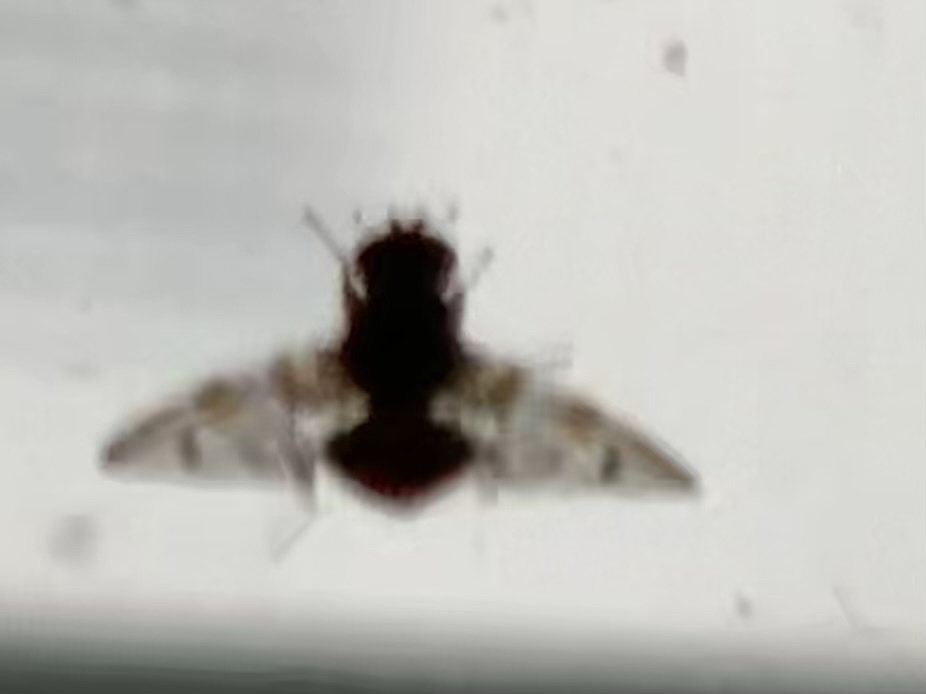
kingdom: Animalia
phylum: Arthropoda
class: Insecta
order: Diptera
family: Tephritidae
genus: Ceratitis
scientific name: Ceratitis capitata
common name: Mediterranean fruit fly
